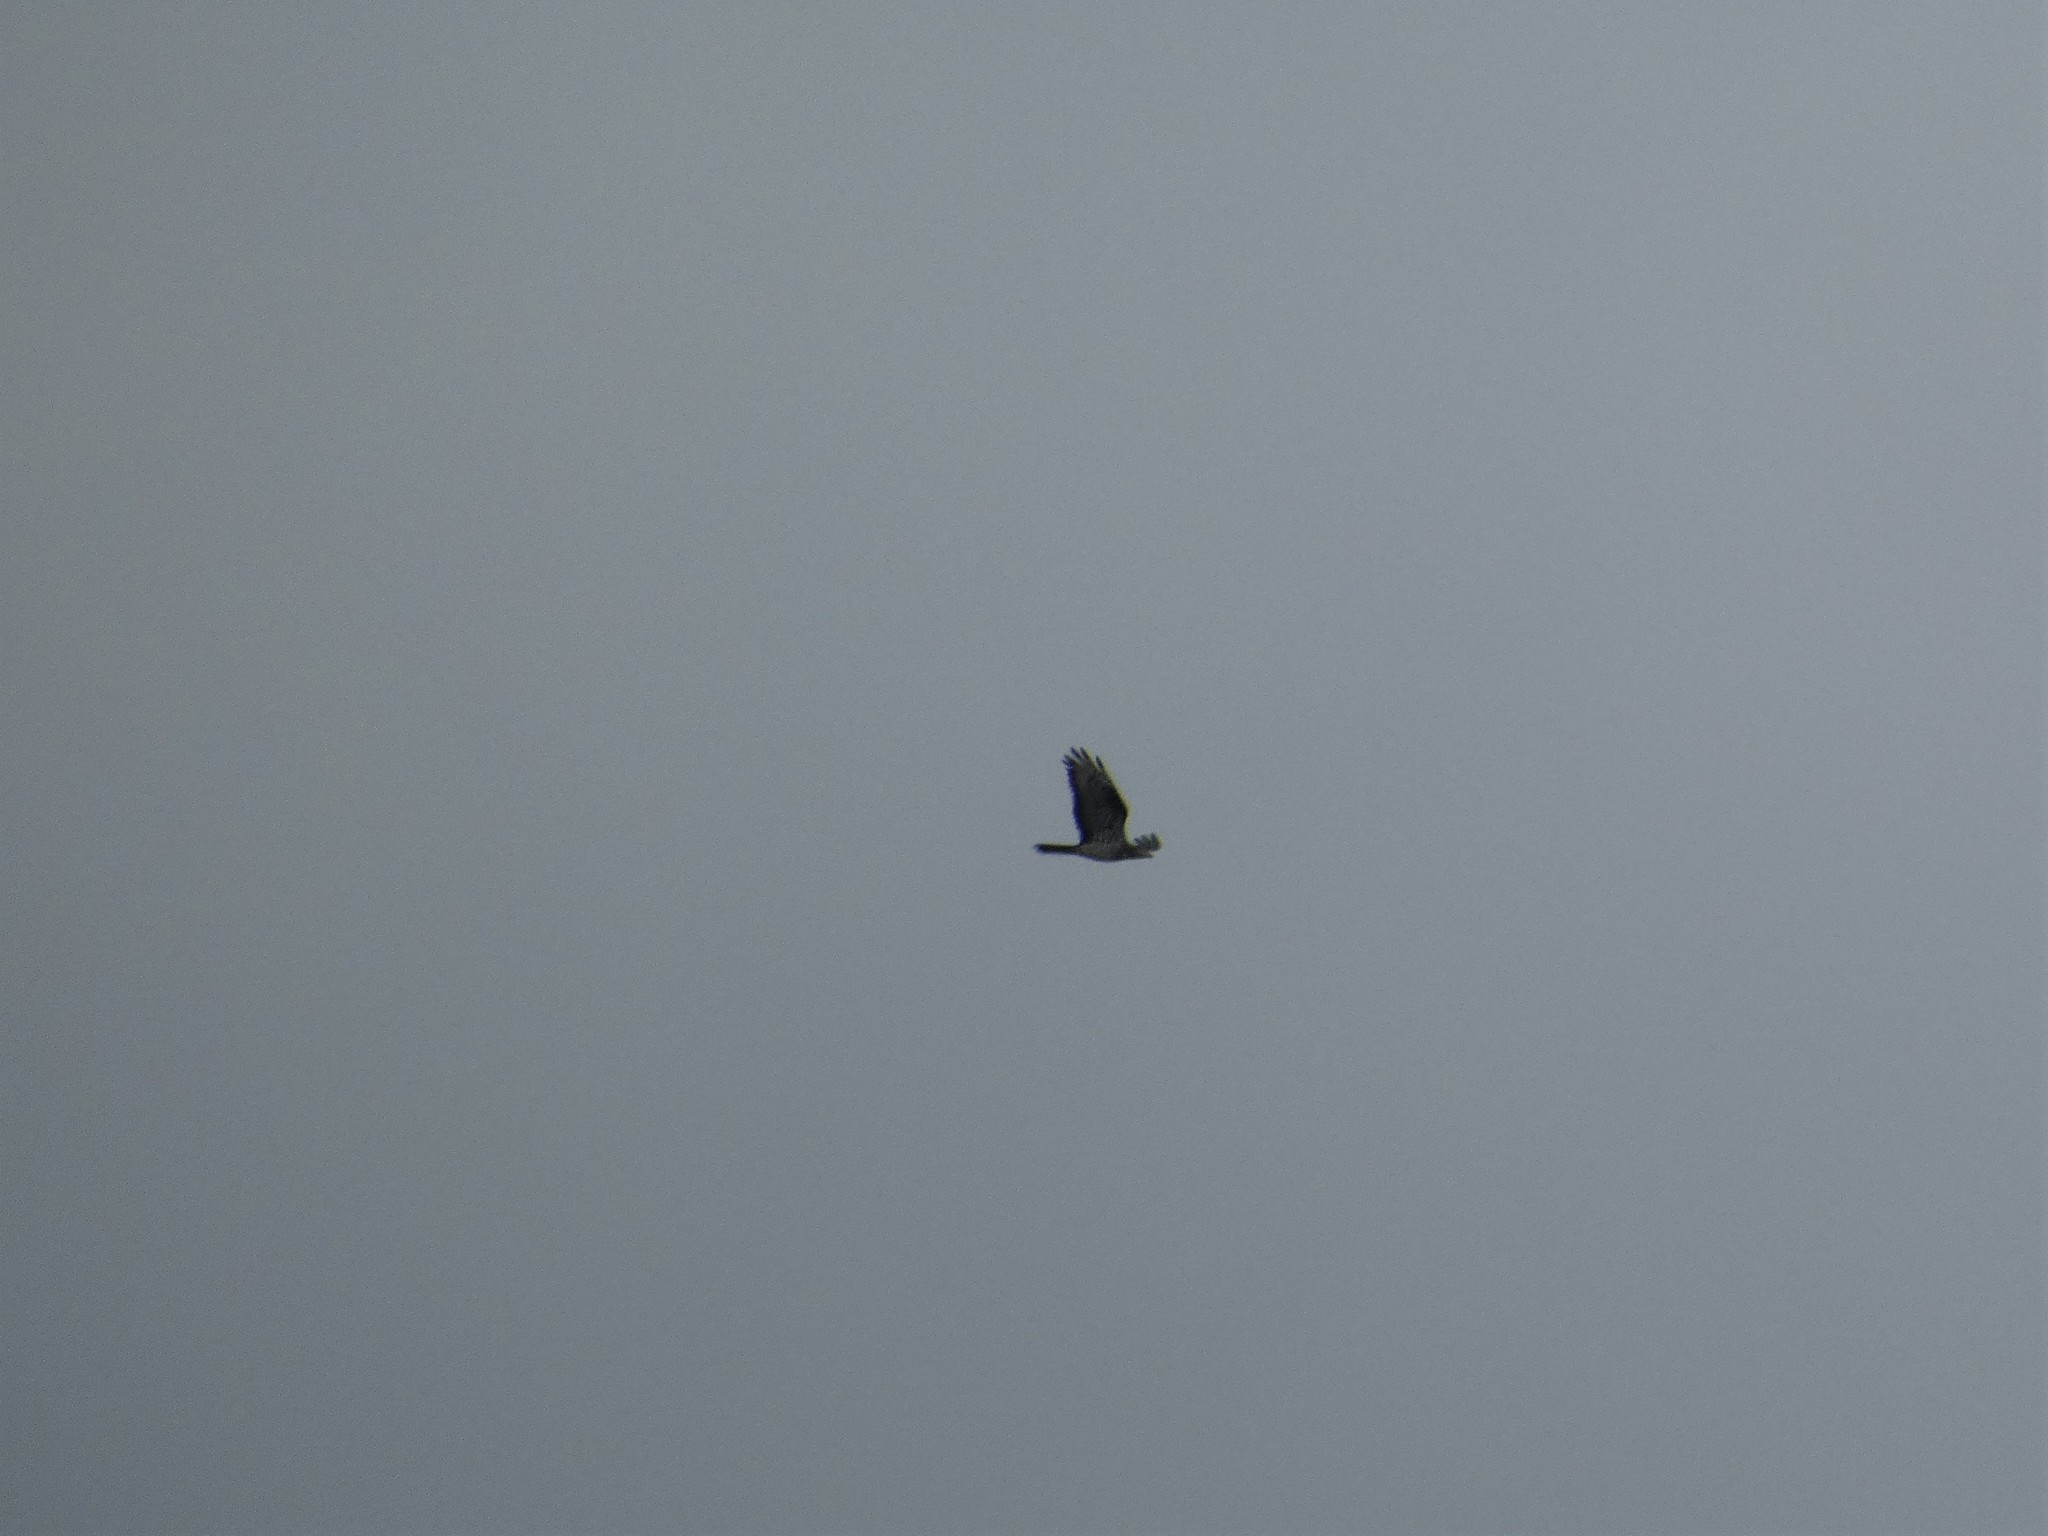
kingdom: Animalia
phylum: Chordata
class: Aves
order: Accipitriformes
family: Accipitridae
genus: Pernis
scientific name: Pernis apivorus
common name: European honey buzzard
